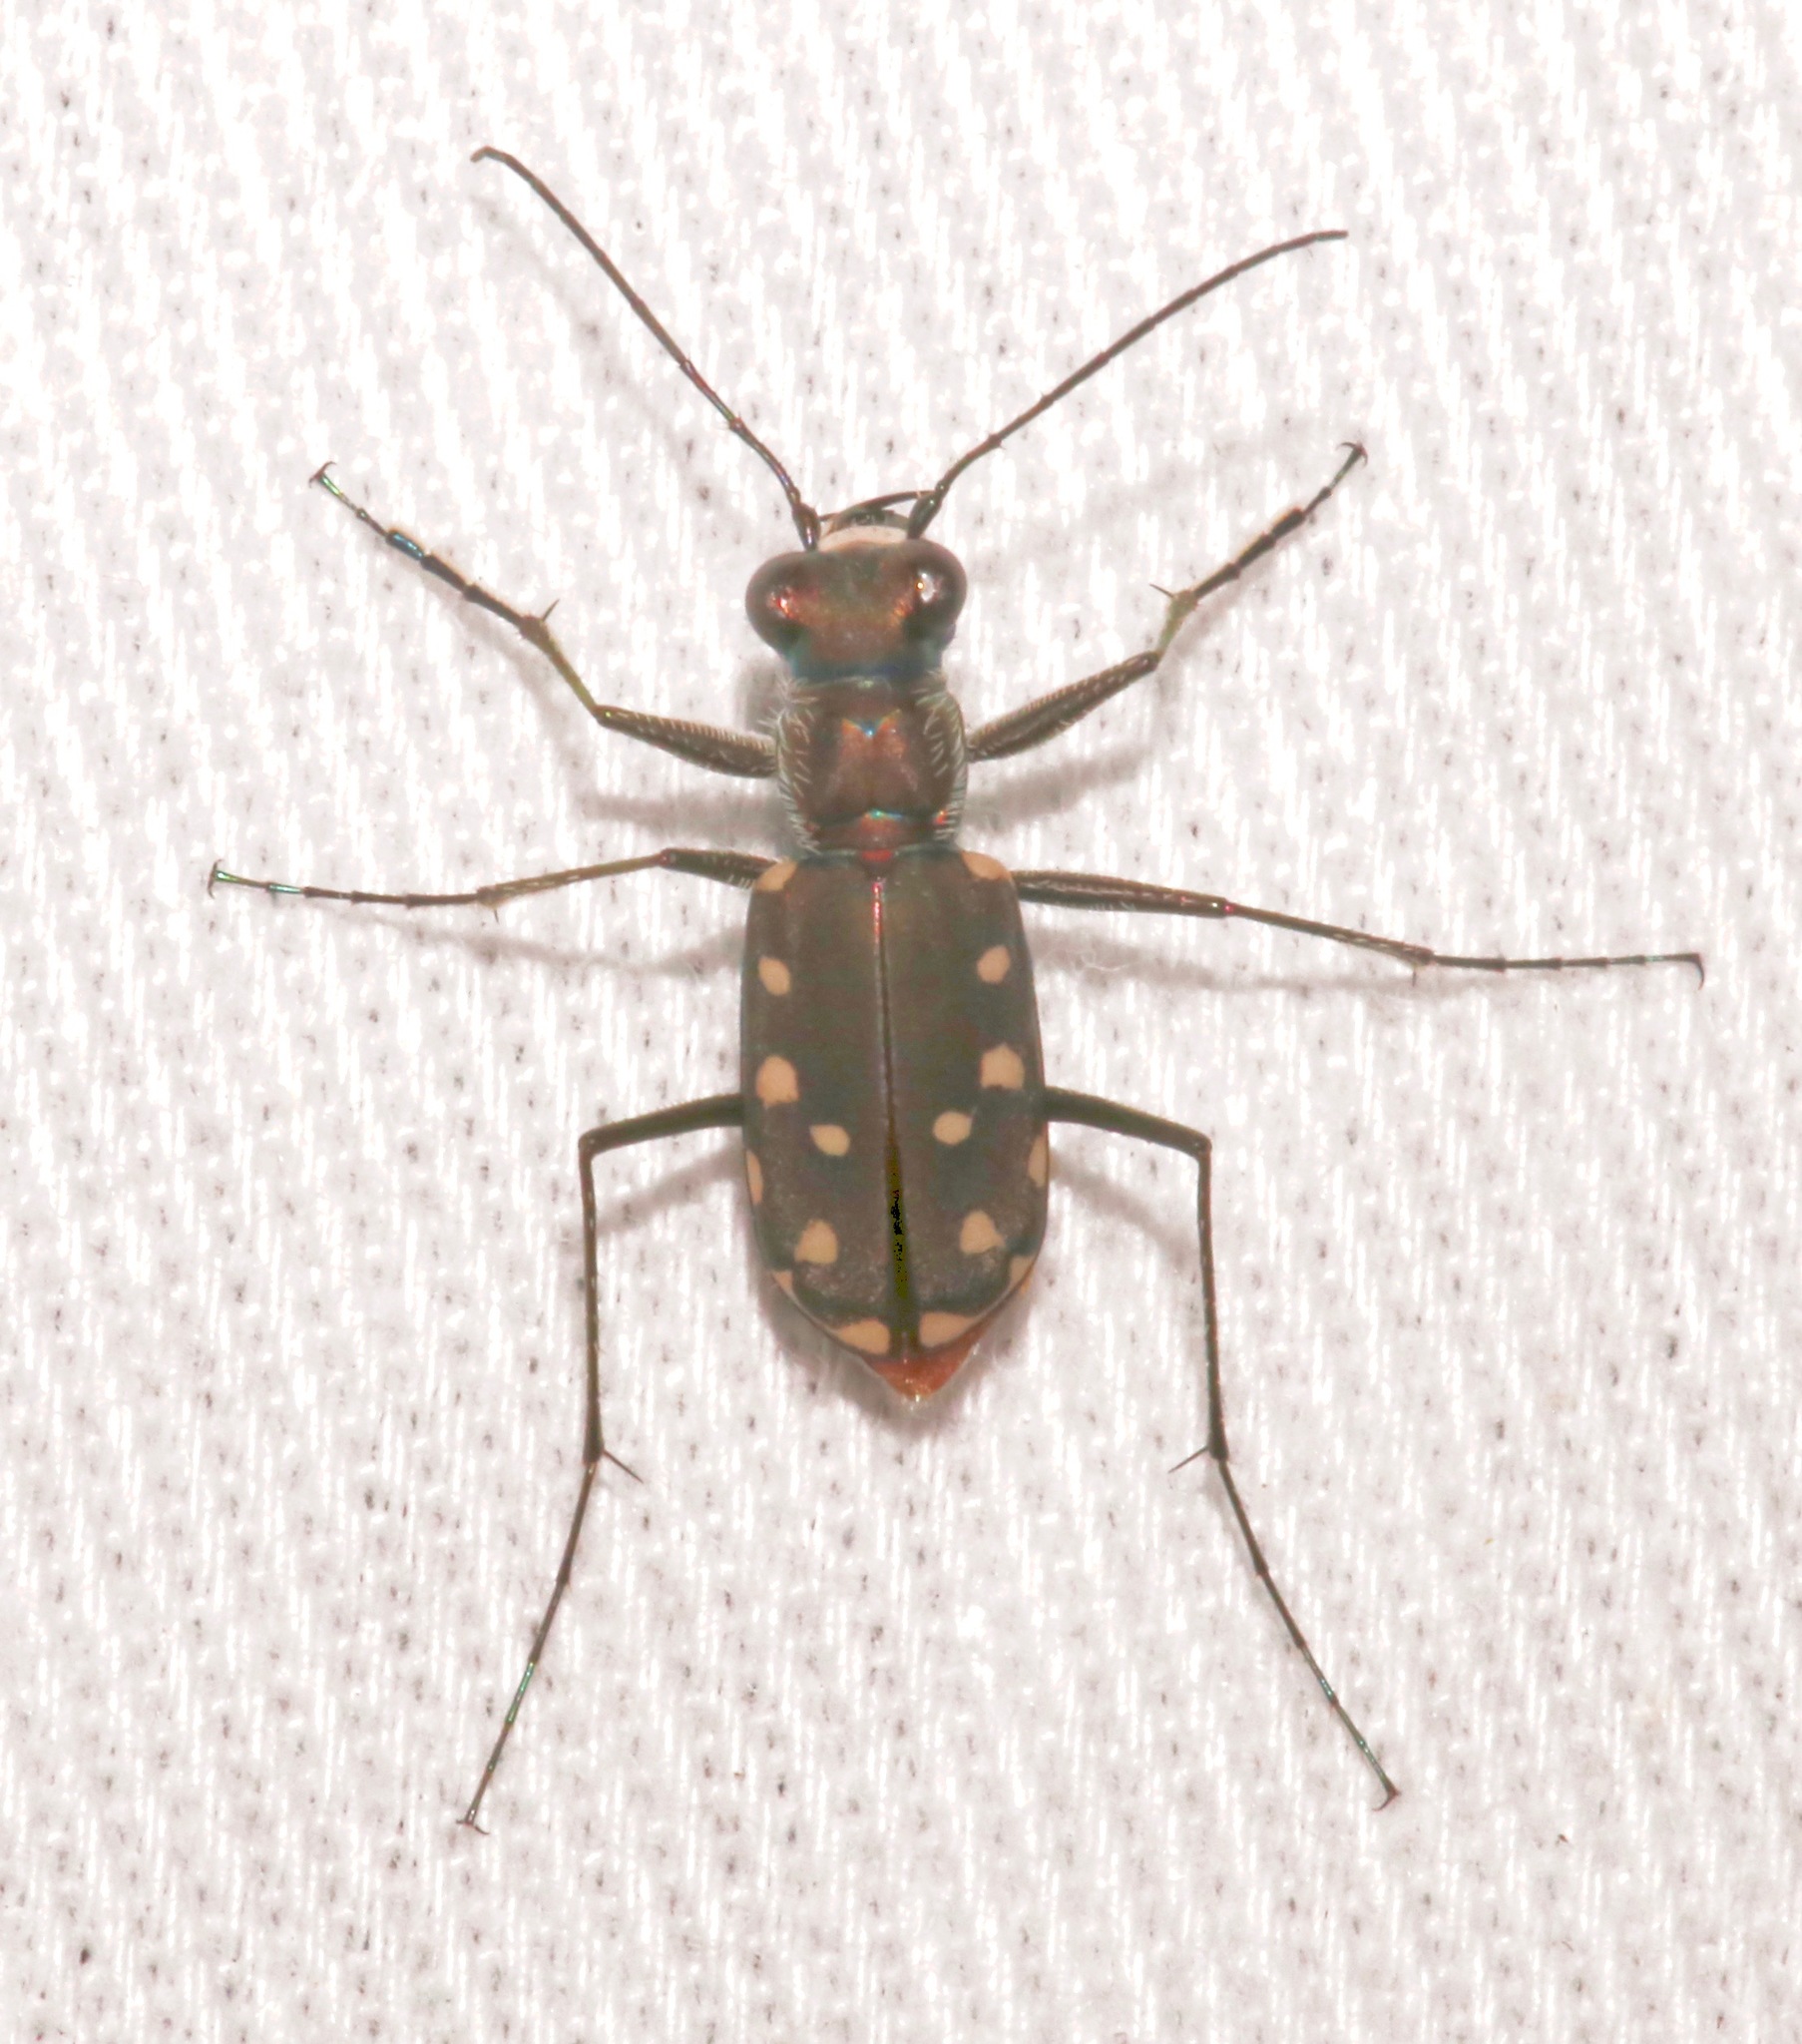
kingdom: Animalia
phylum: Arthropoda
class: Insecta
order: Coleoptera
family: Carabidae
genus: Cicindela
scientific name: Cicindela sedecimpunctata
